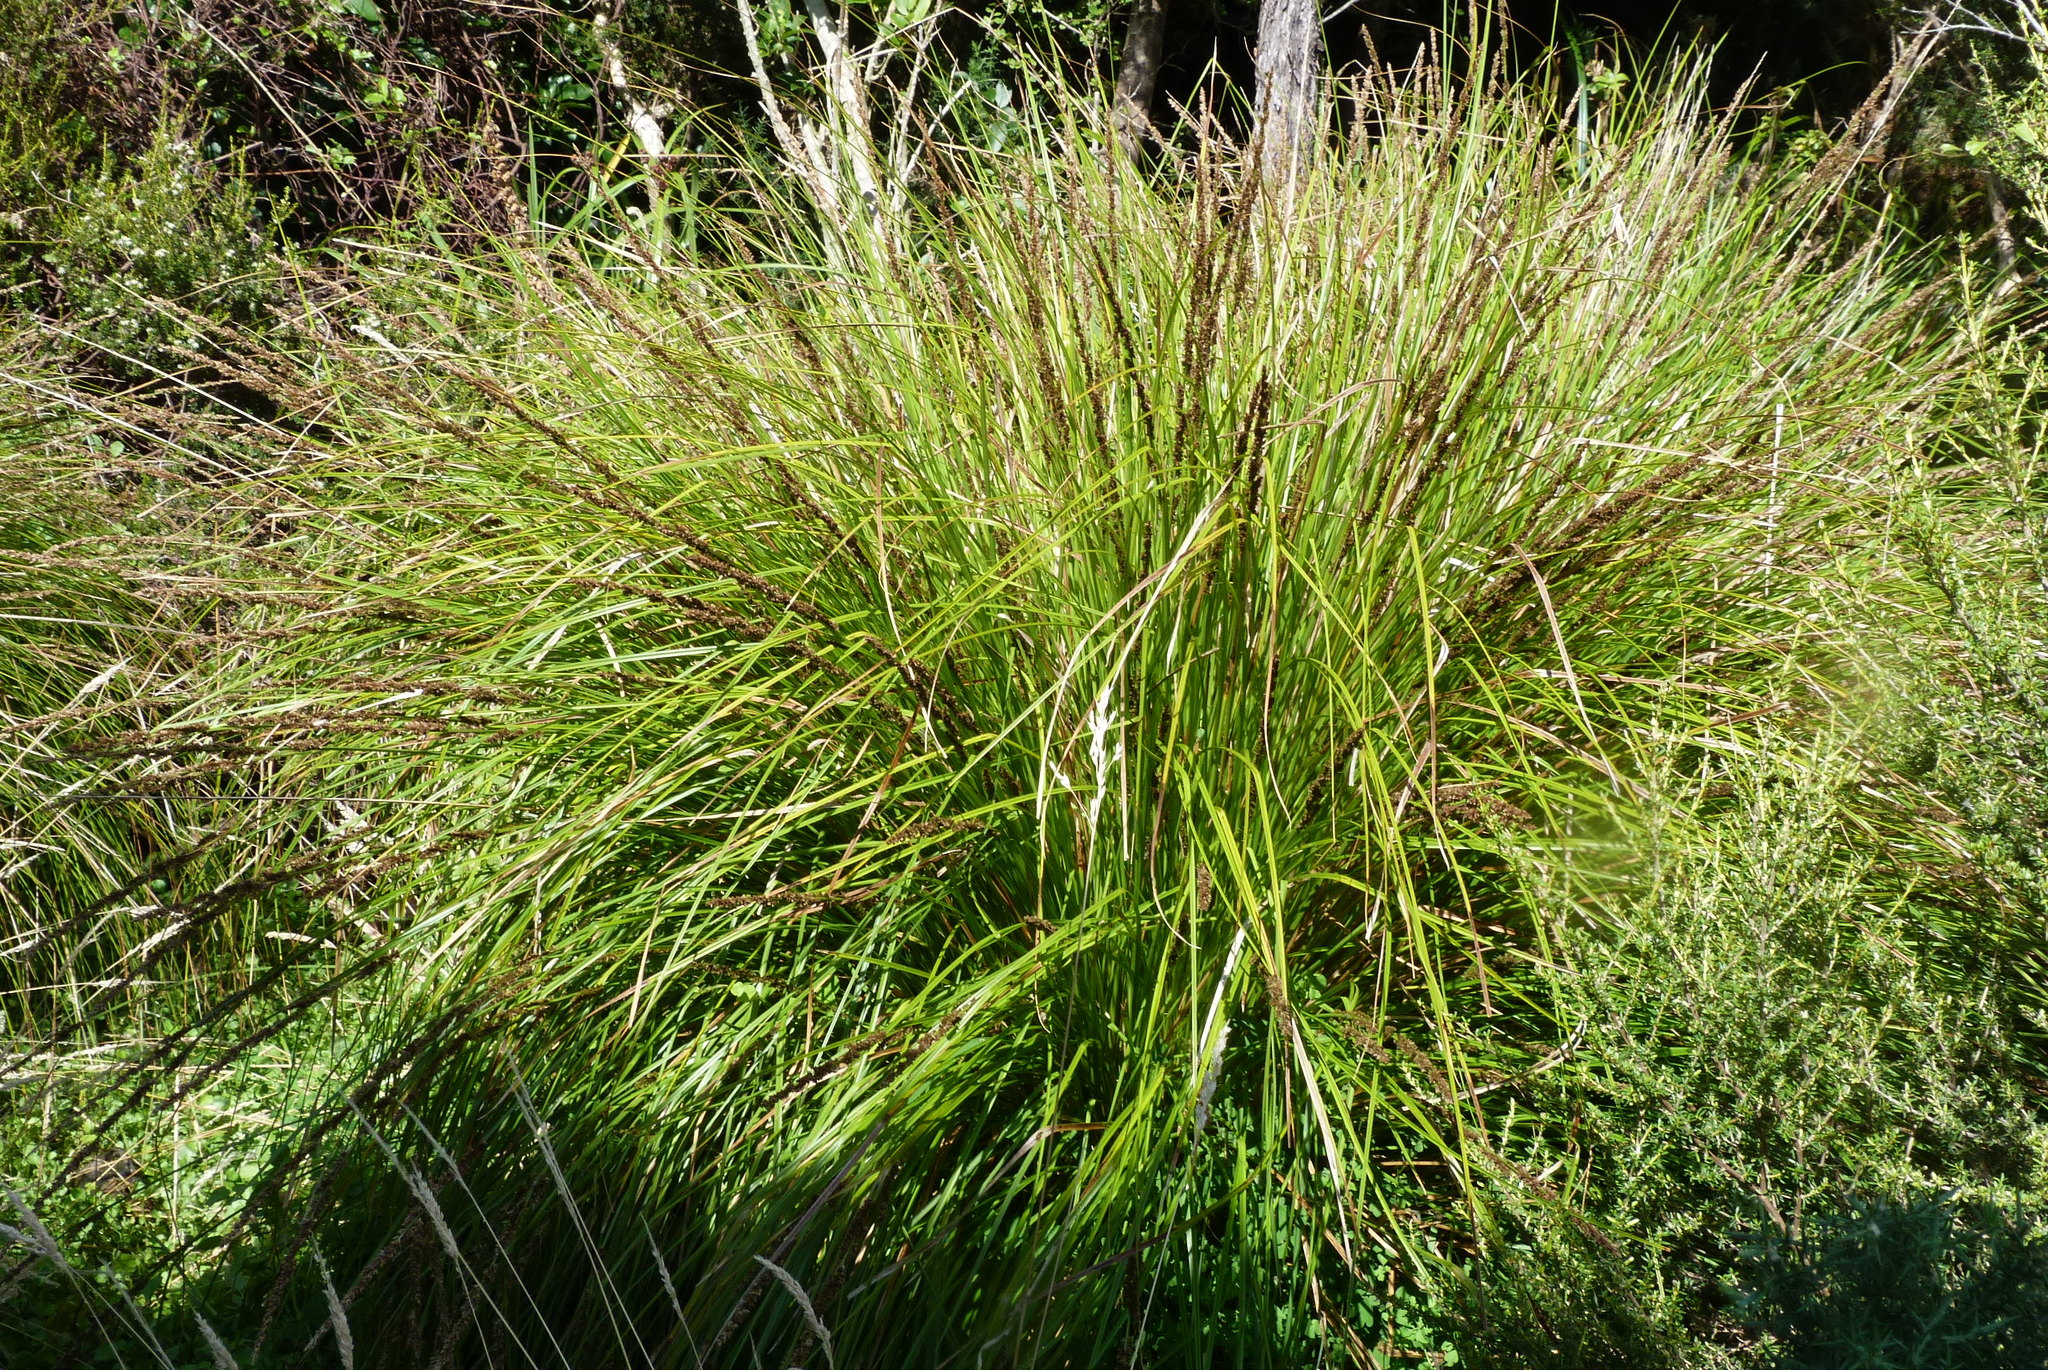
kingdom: Plantae
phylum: Tracheophyta
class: Liliopsida
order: Poales
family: Cyperaceae
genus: Carex
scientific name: Carex virgata
